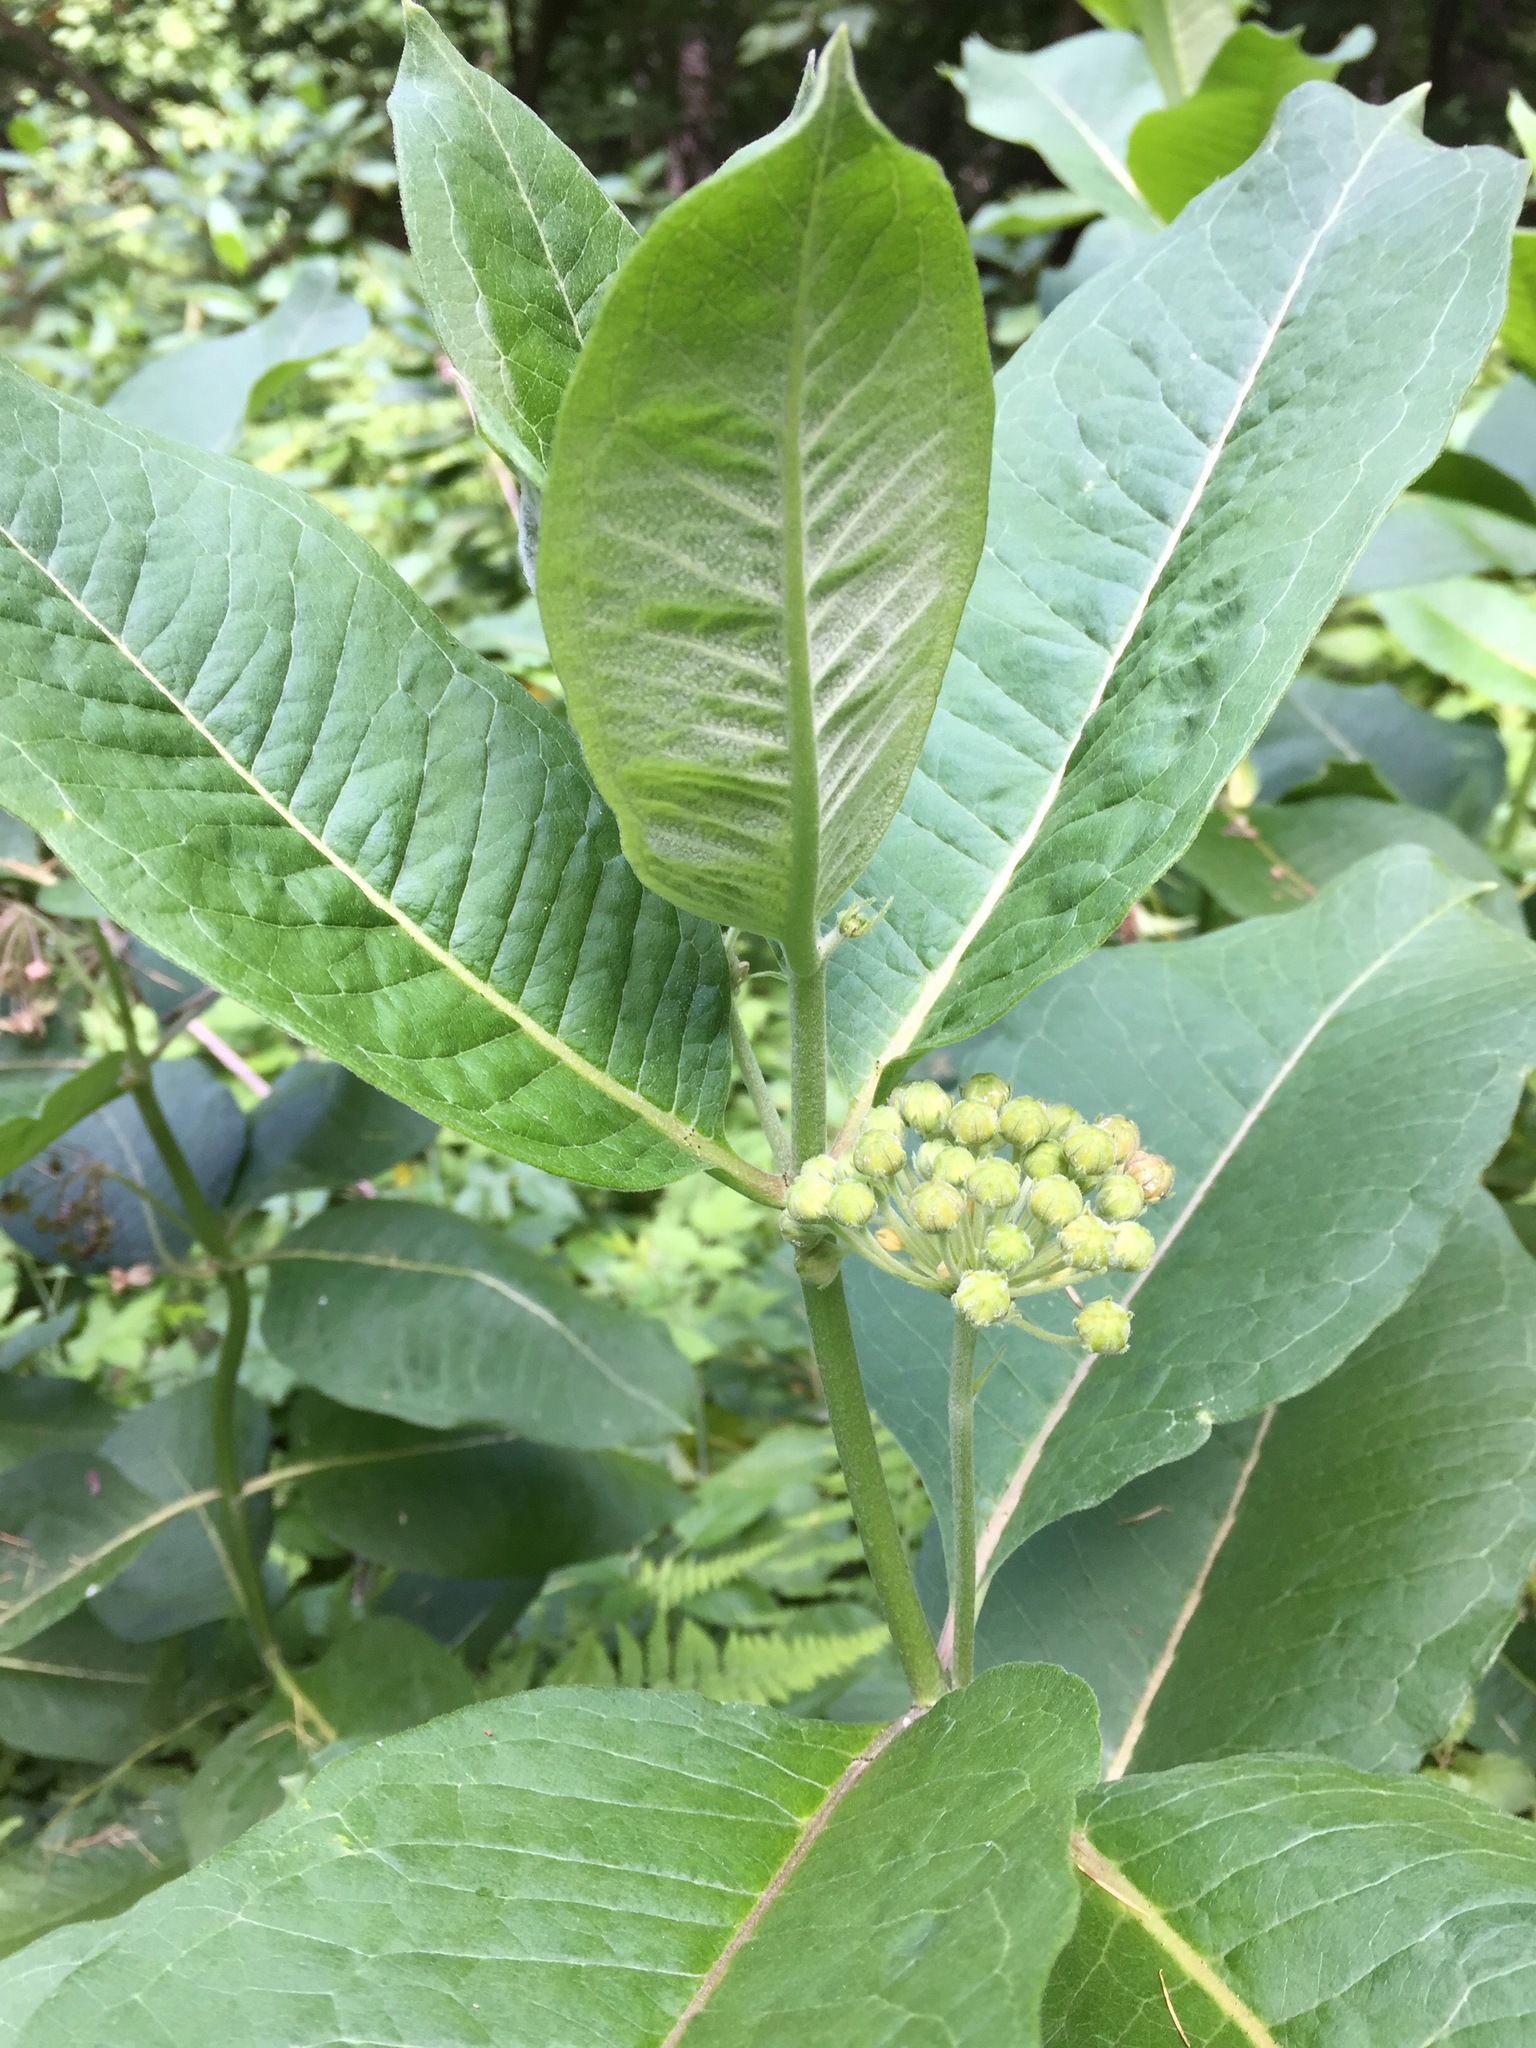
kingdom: Plantae
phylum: Tracheophyta
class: Magnoliopsida
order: Gentianales
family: Apocynaceae
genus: Asclepias
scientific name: Asclepias syriaca
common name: Common milkweed
